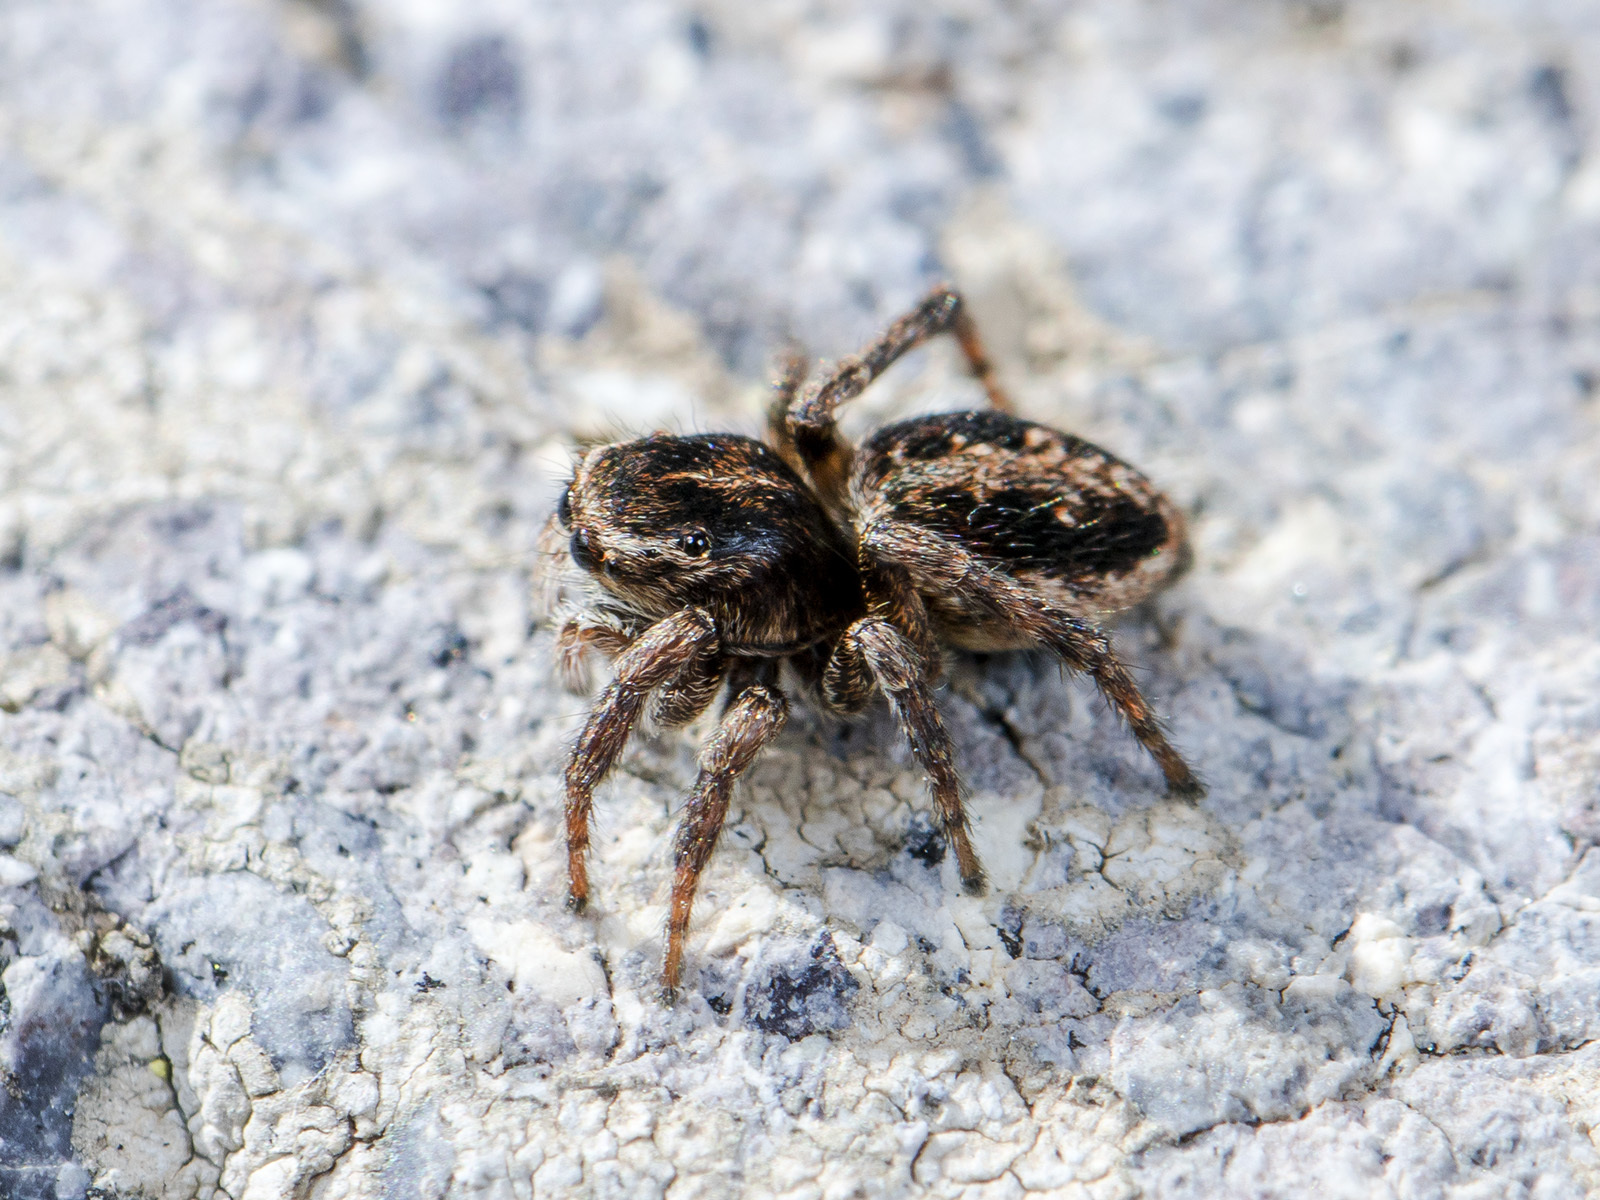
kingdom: Animalia
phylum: Arthropoda
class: Arachnida
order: Araneae
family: Salticidae
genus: Attulus
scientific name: Attulus talgarensis
